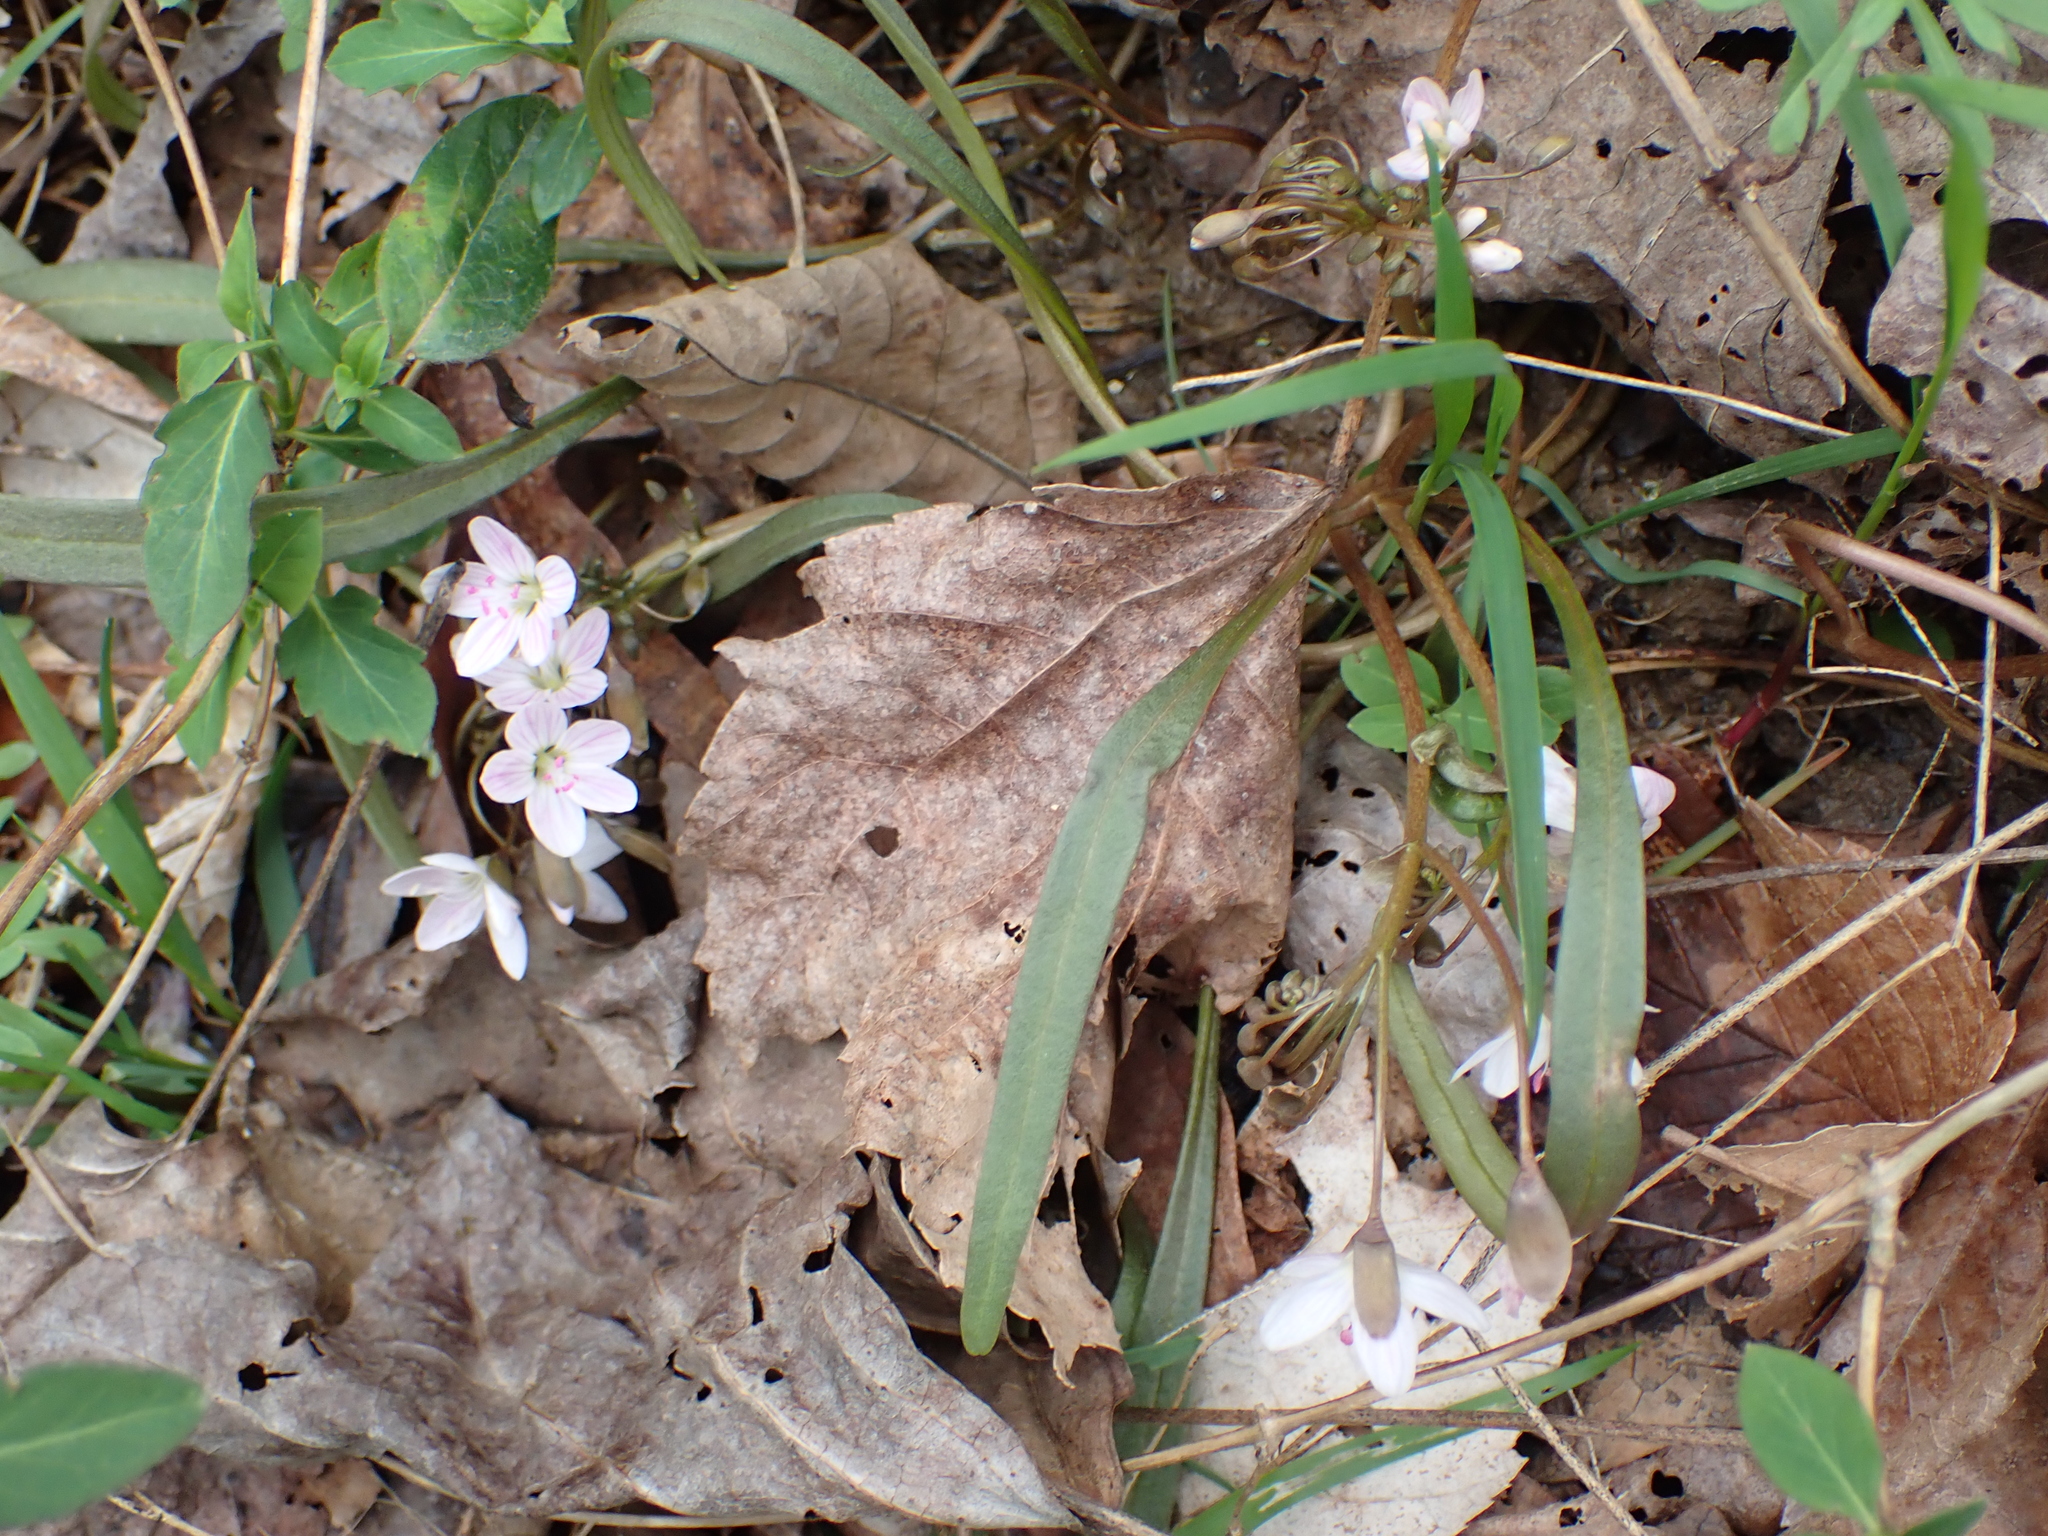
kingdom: Plantae
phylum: Tracheophyta
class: Magnoliopsida
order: Caryophyllales
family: Montiaceae
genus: Claytonia
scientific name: Claytonia virginica
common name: Virginia springbeauty
